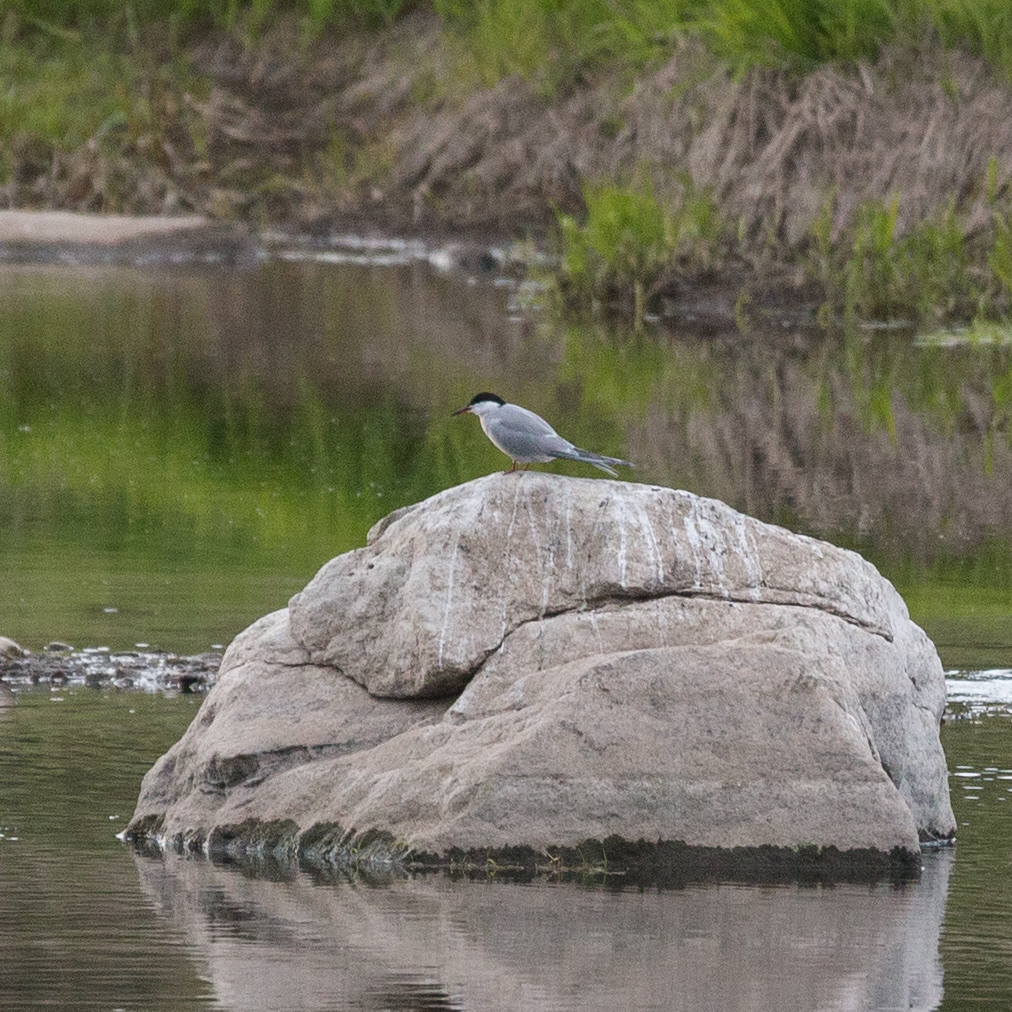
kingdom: Animalia
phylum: Chordata
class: Aves
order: Charadriiformes
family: Laridae
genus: Sterna
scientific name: Sterna hirundo
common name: Common tern
